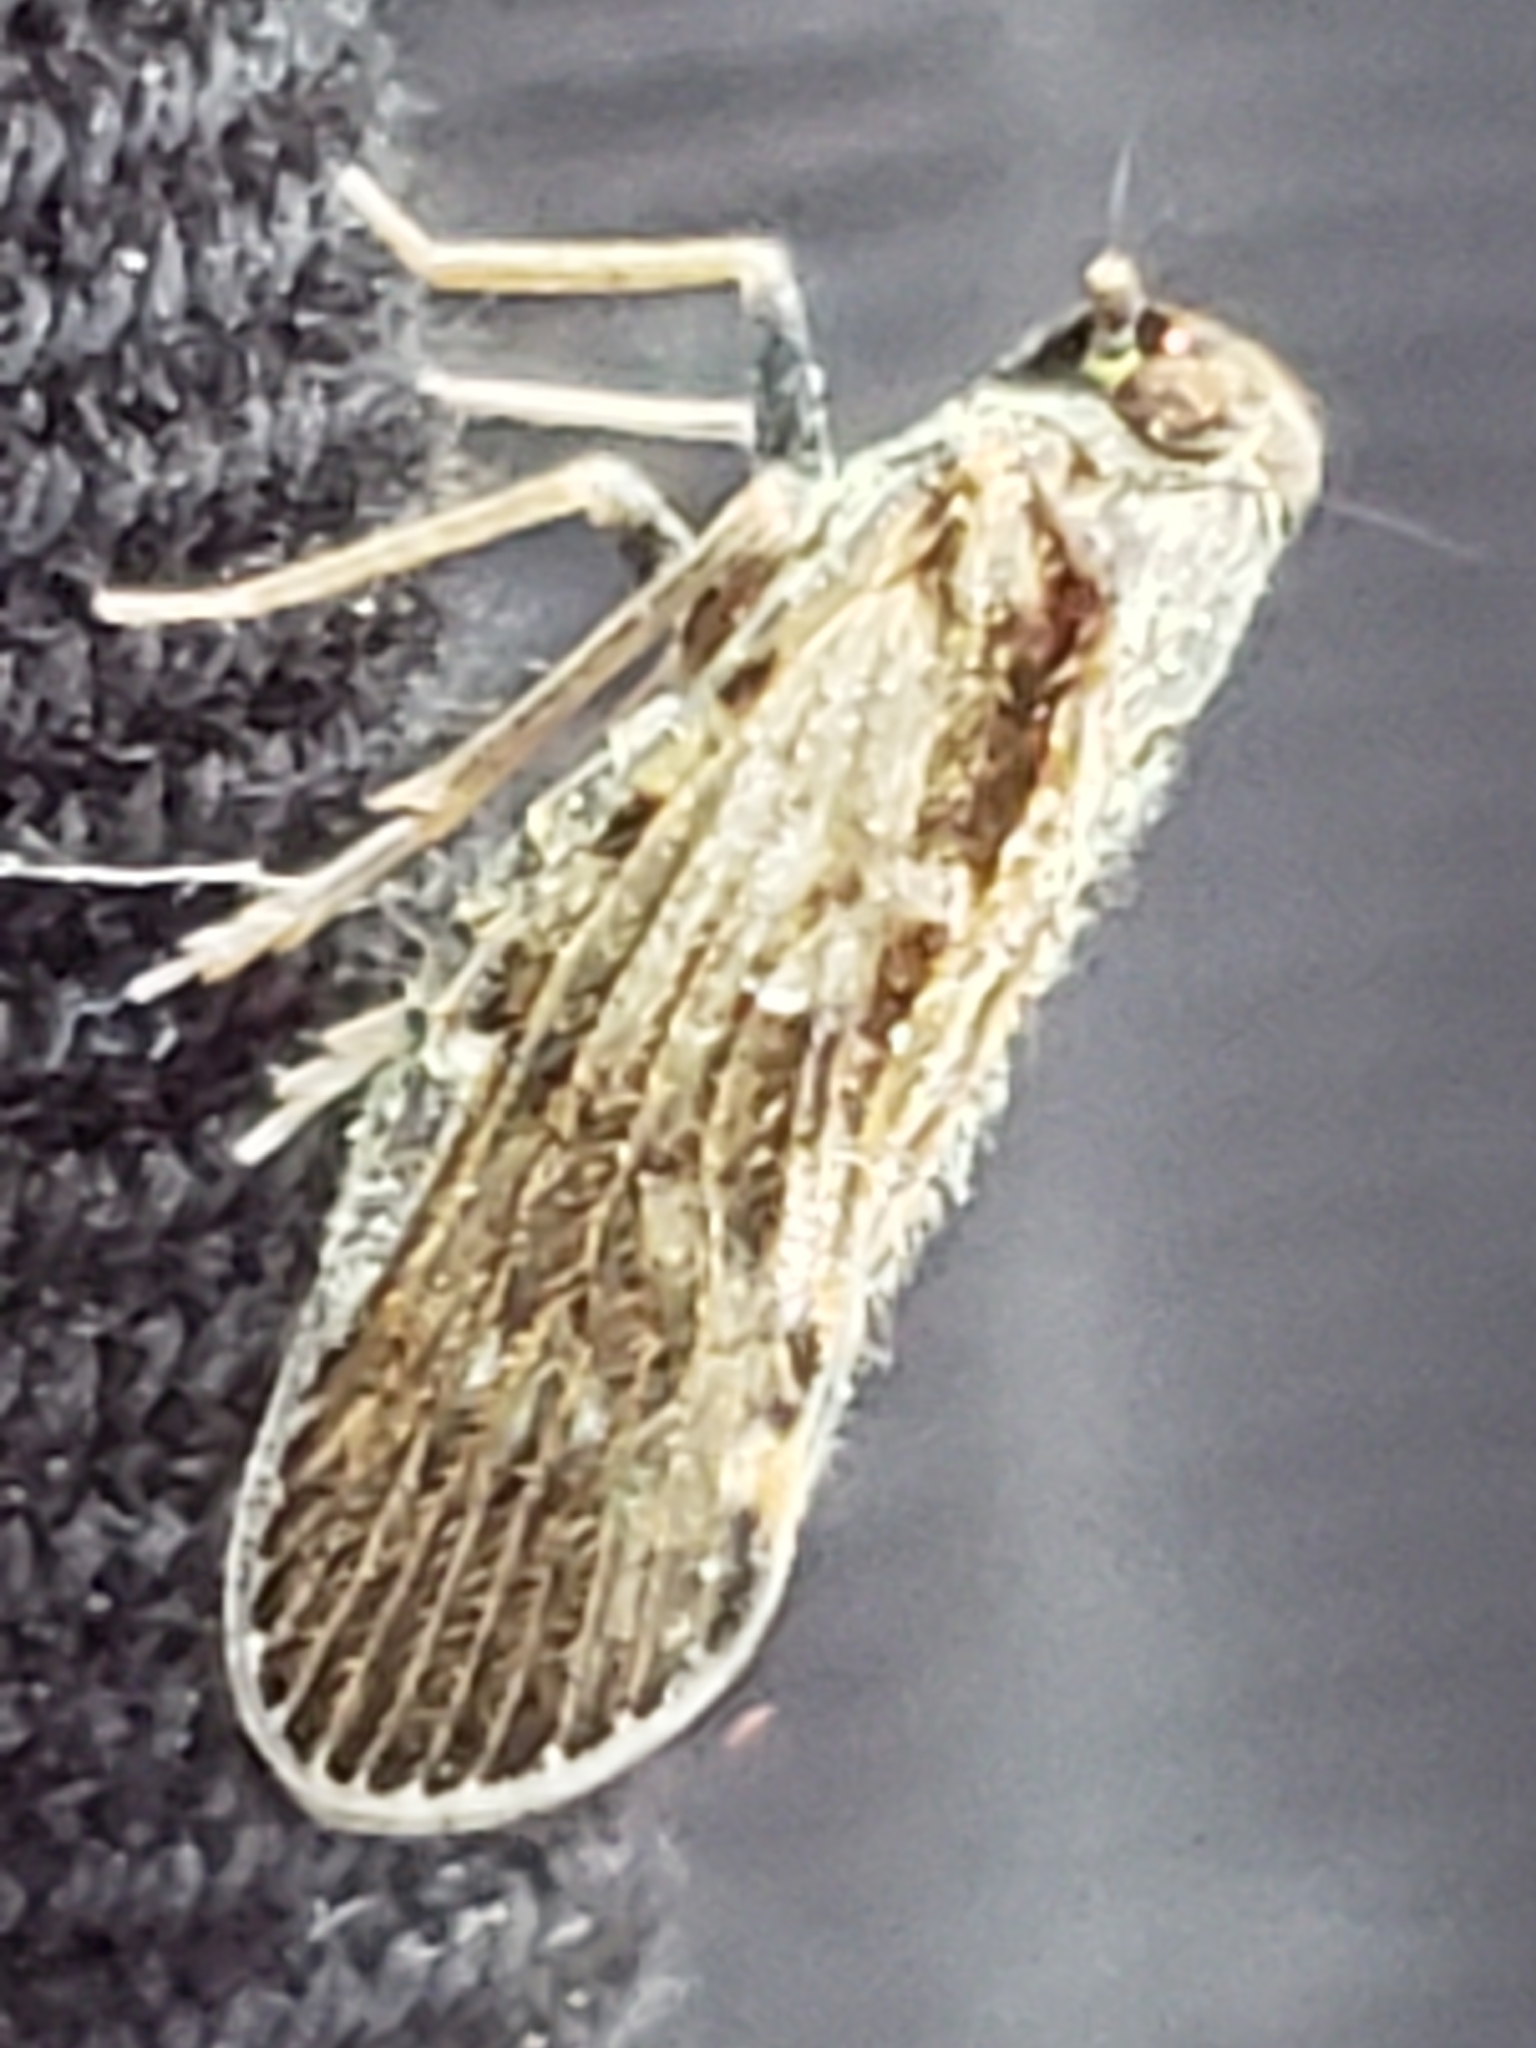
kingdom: Animalia
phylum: Arthropoda
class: Insecta
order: Hemiptera
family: Cixiidae
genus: Pintalia
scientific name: Pintalia vibex
